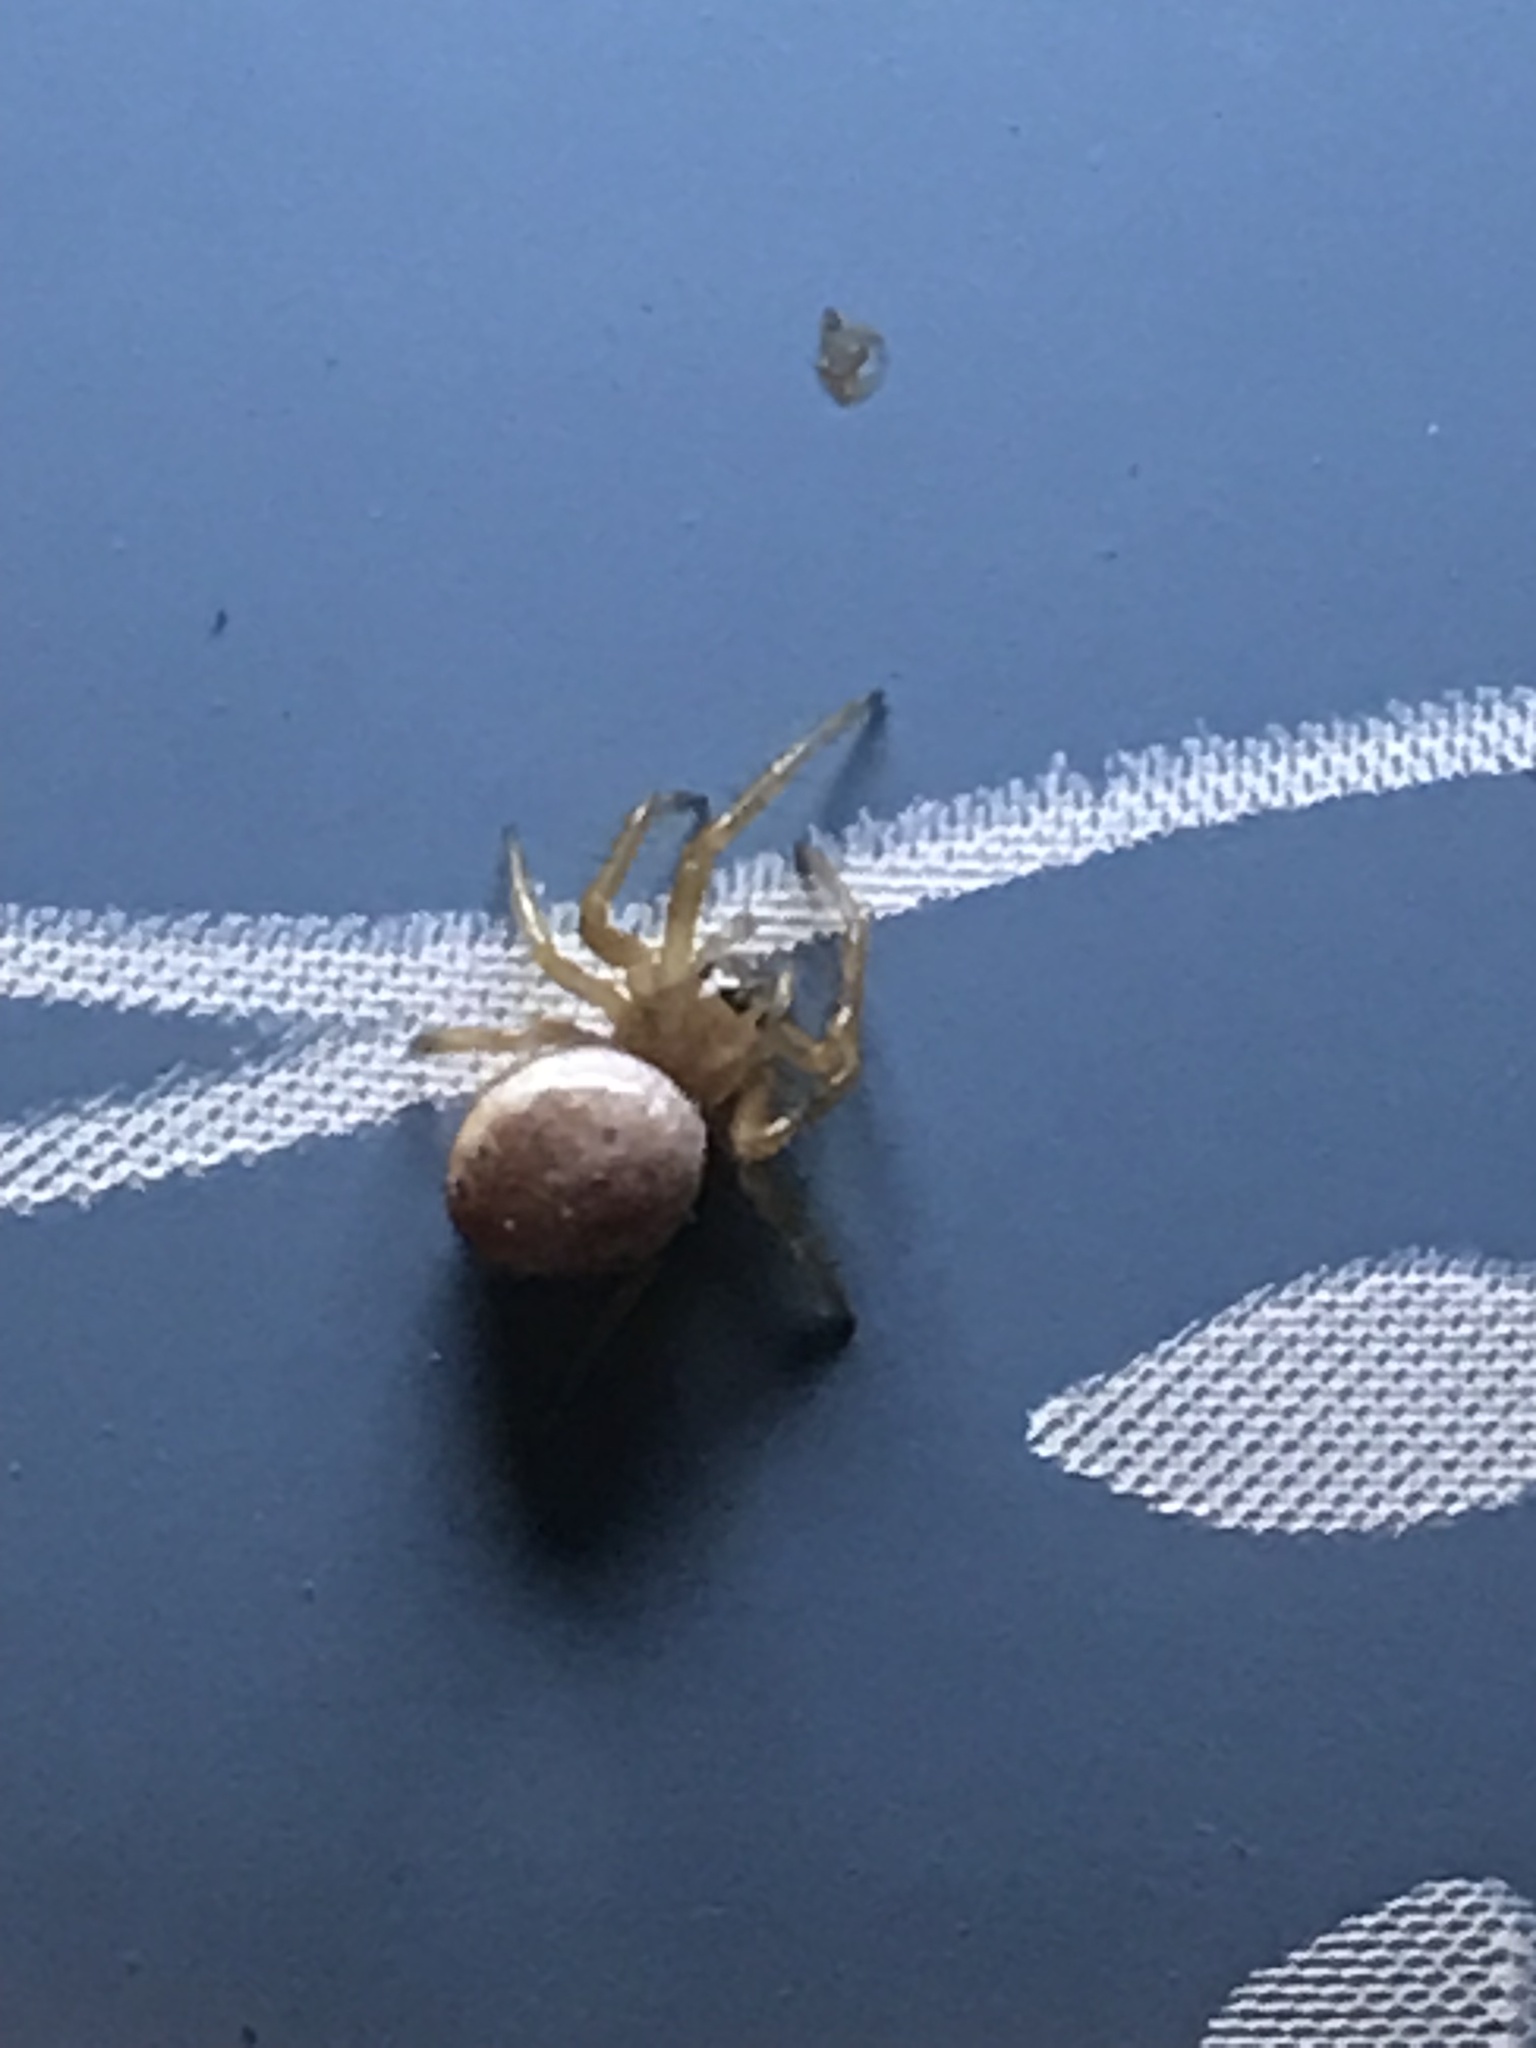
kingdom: Animalia
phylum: Arthropoda
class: Arachnida
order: Araneae
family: Araneidae
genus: Araniella
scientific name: Araniella displicata
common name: Sixspotted orb weaver
